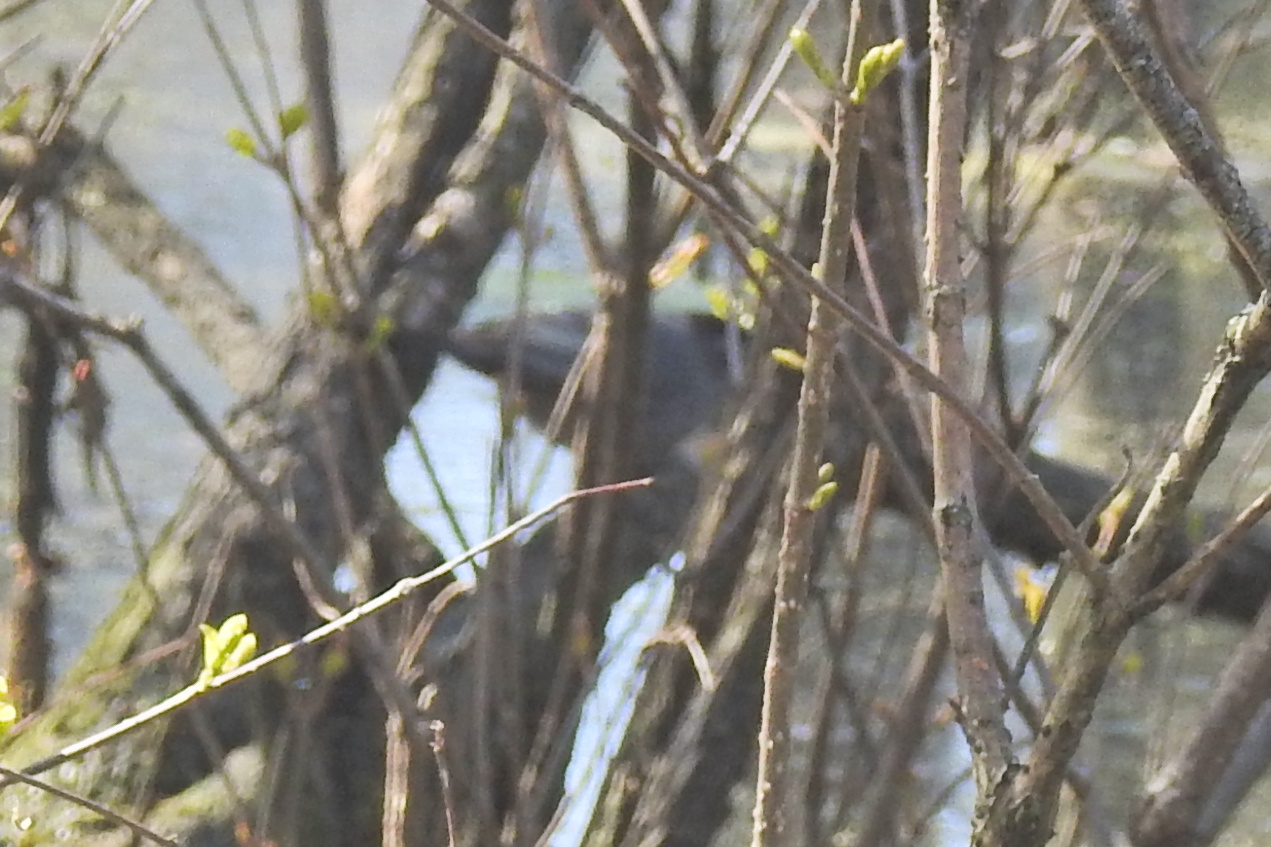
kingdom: Animalia
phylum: Chordata
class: Aves
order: Passeriformes
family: Mimidae
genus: Dumetella
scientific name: Dumetella carolinensis
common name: Gray catbird
